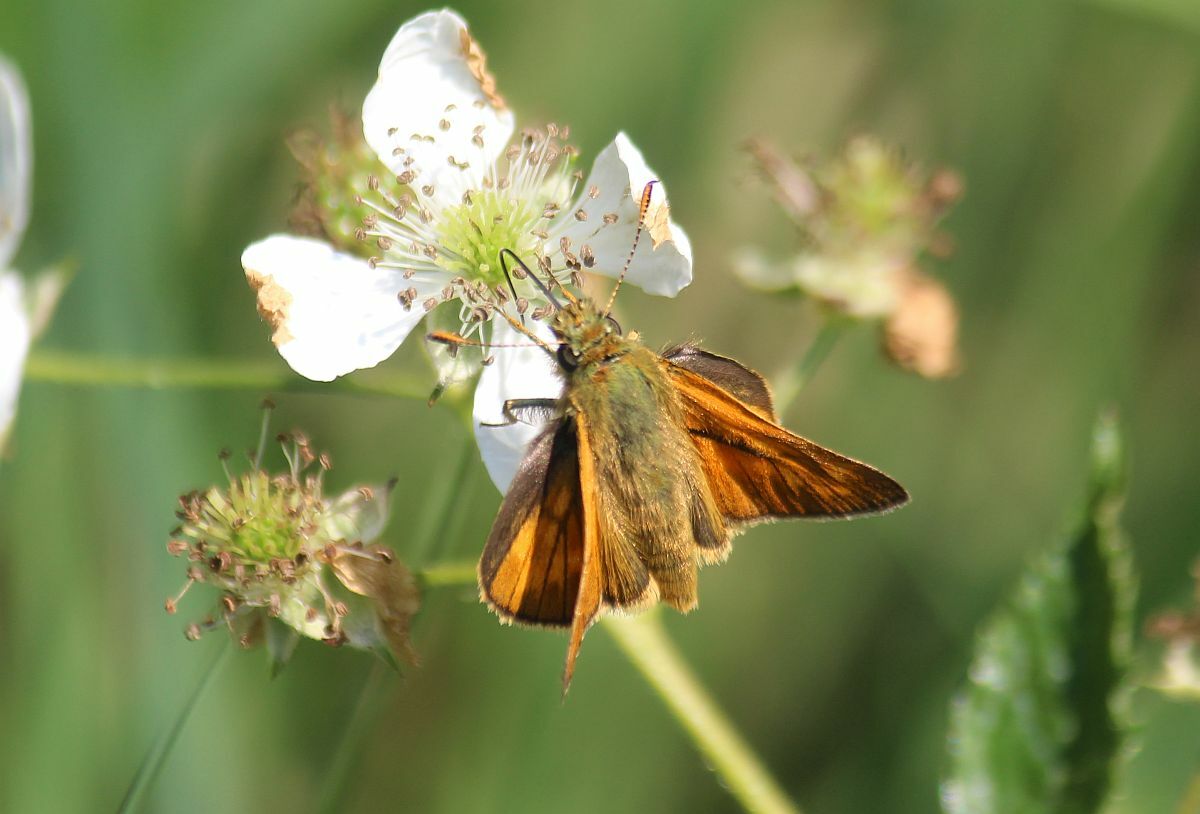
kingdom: Animalia
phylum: Arthropoda
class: Insecta
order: Lepidoptera
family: Hesperiidae
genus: Ochlodes
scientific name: Ochlodes venata
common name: Large skipper
